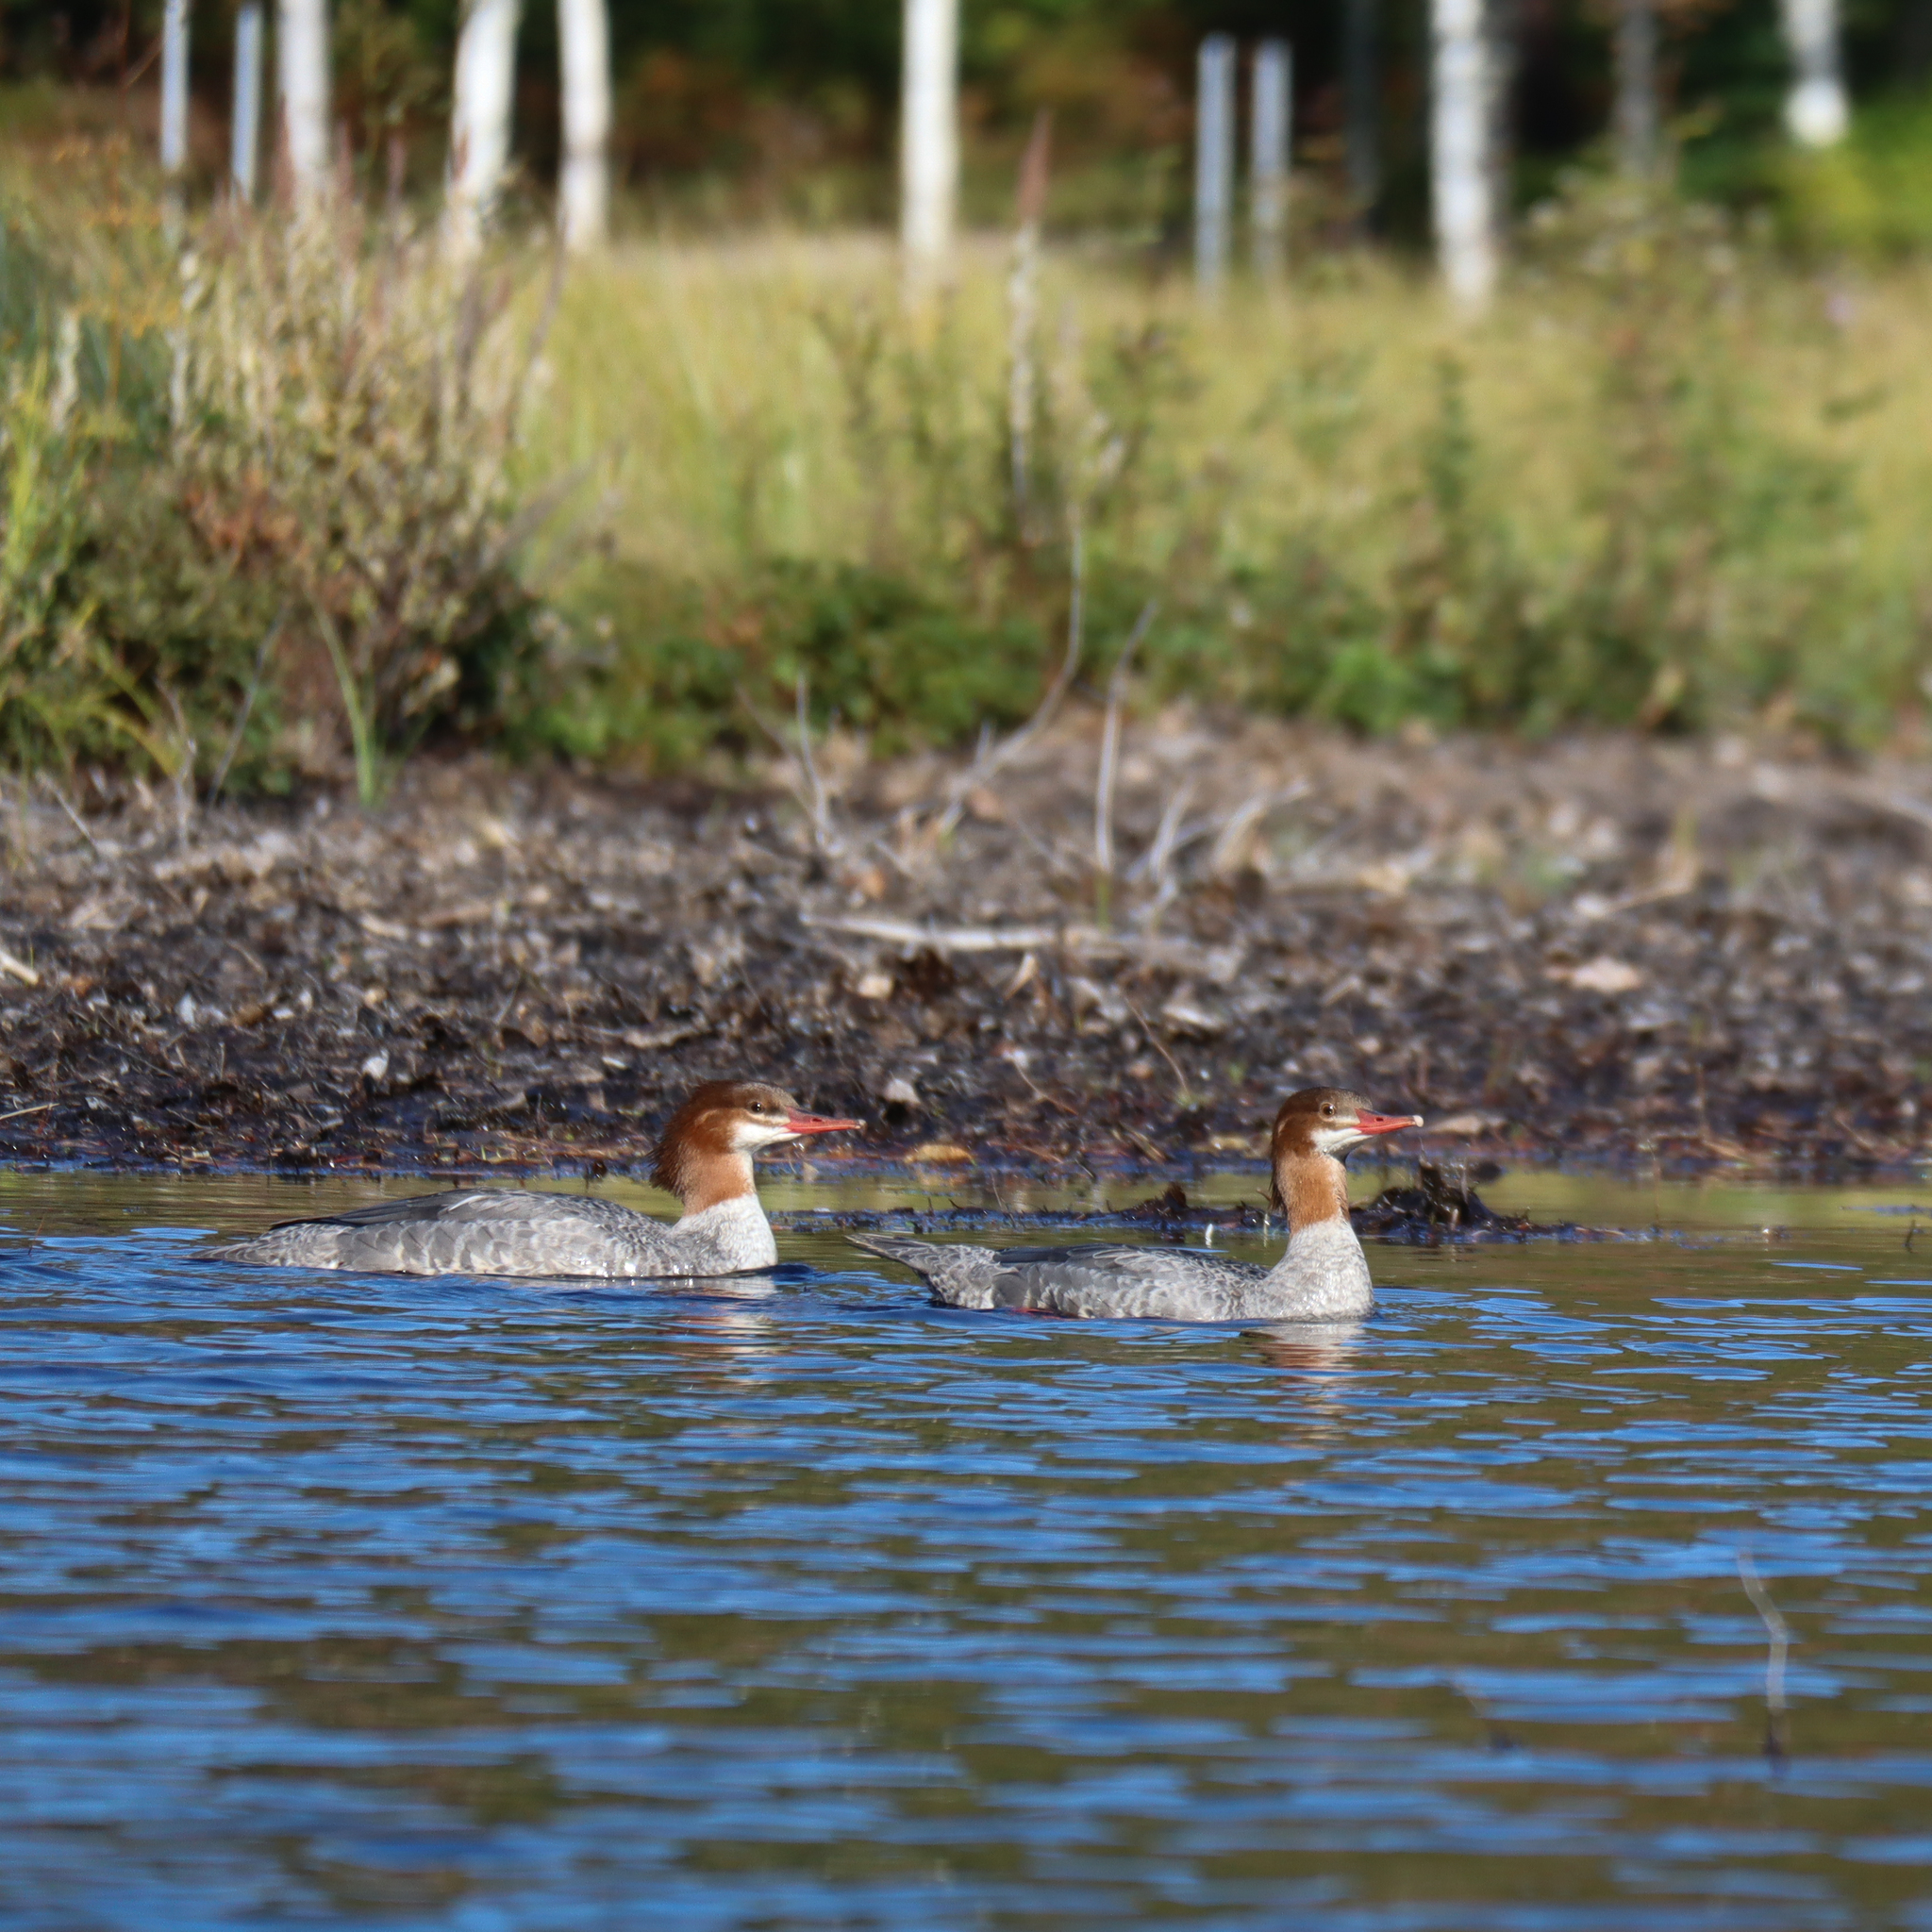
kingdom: Animalia
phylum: Chordata
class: Aves
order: Anseriformes
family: Anatidae
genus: Mergus
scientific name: Mergus merganser
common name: Common merganser
